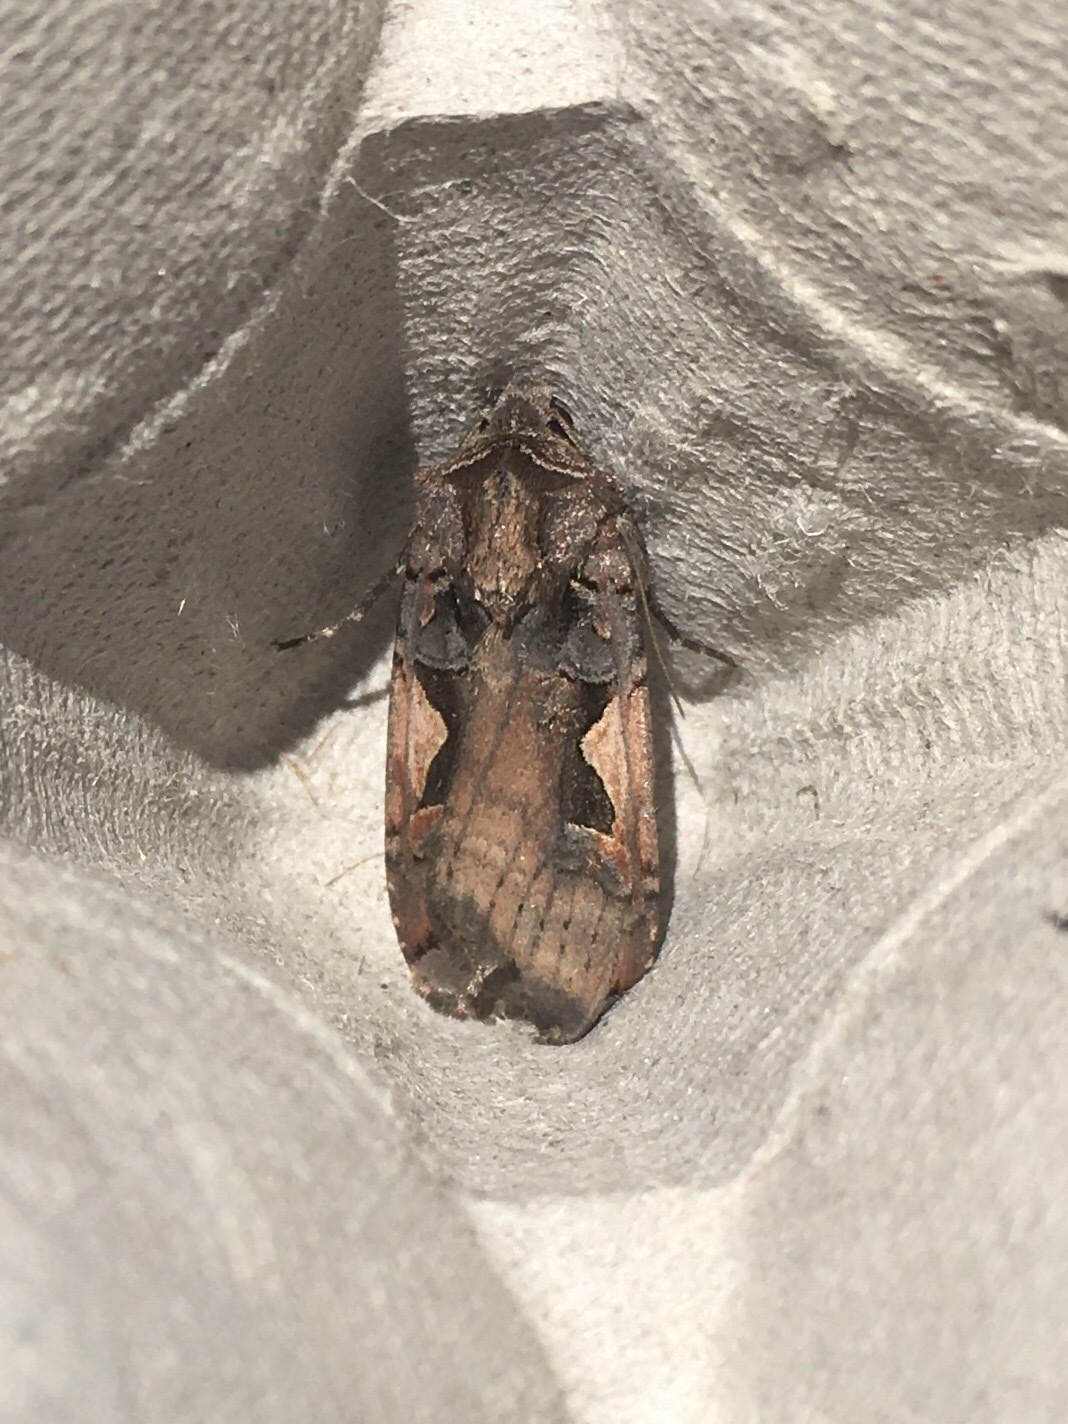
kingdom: Animalia
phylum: Arthropoda
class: Insecta
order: Lepidoptera
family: Noctuidae
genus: Xestia
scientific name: Xestia
